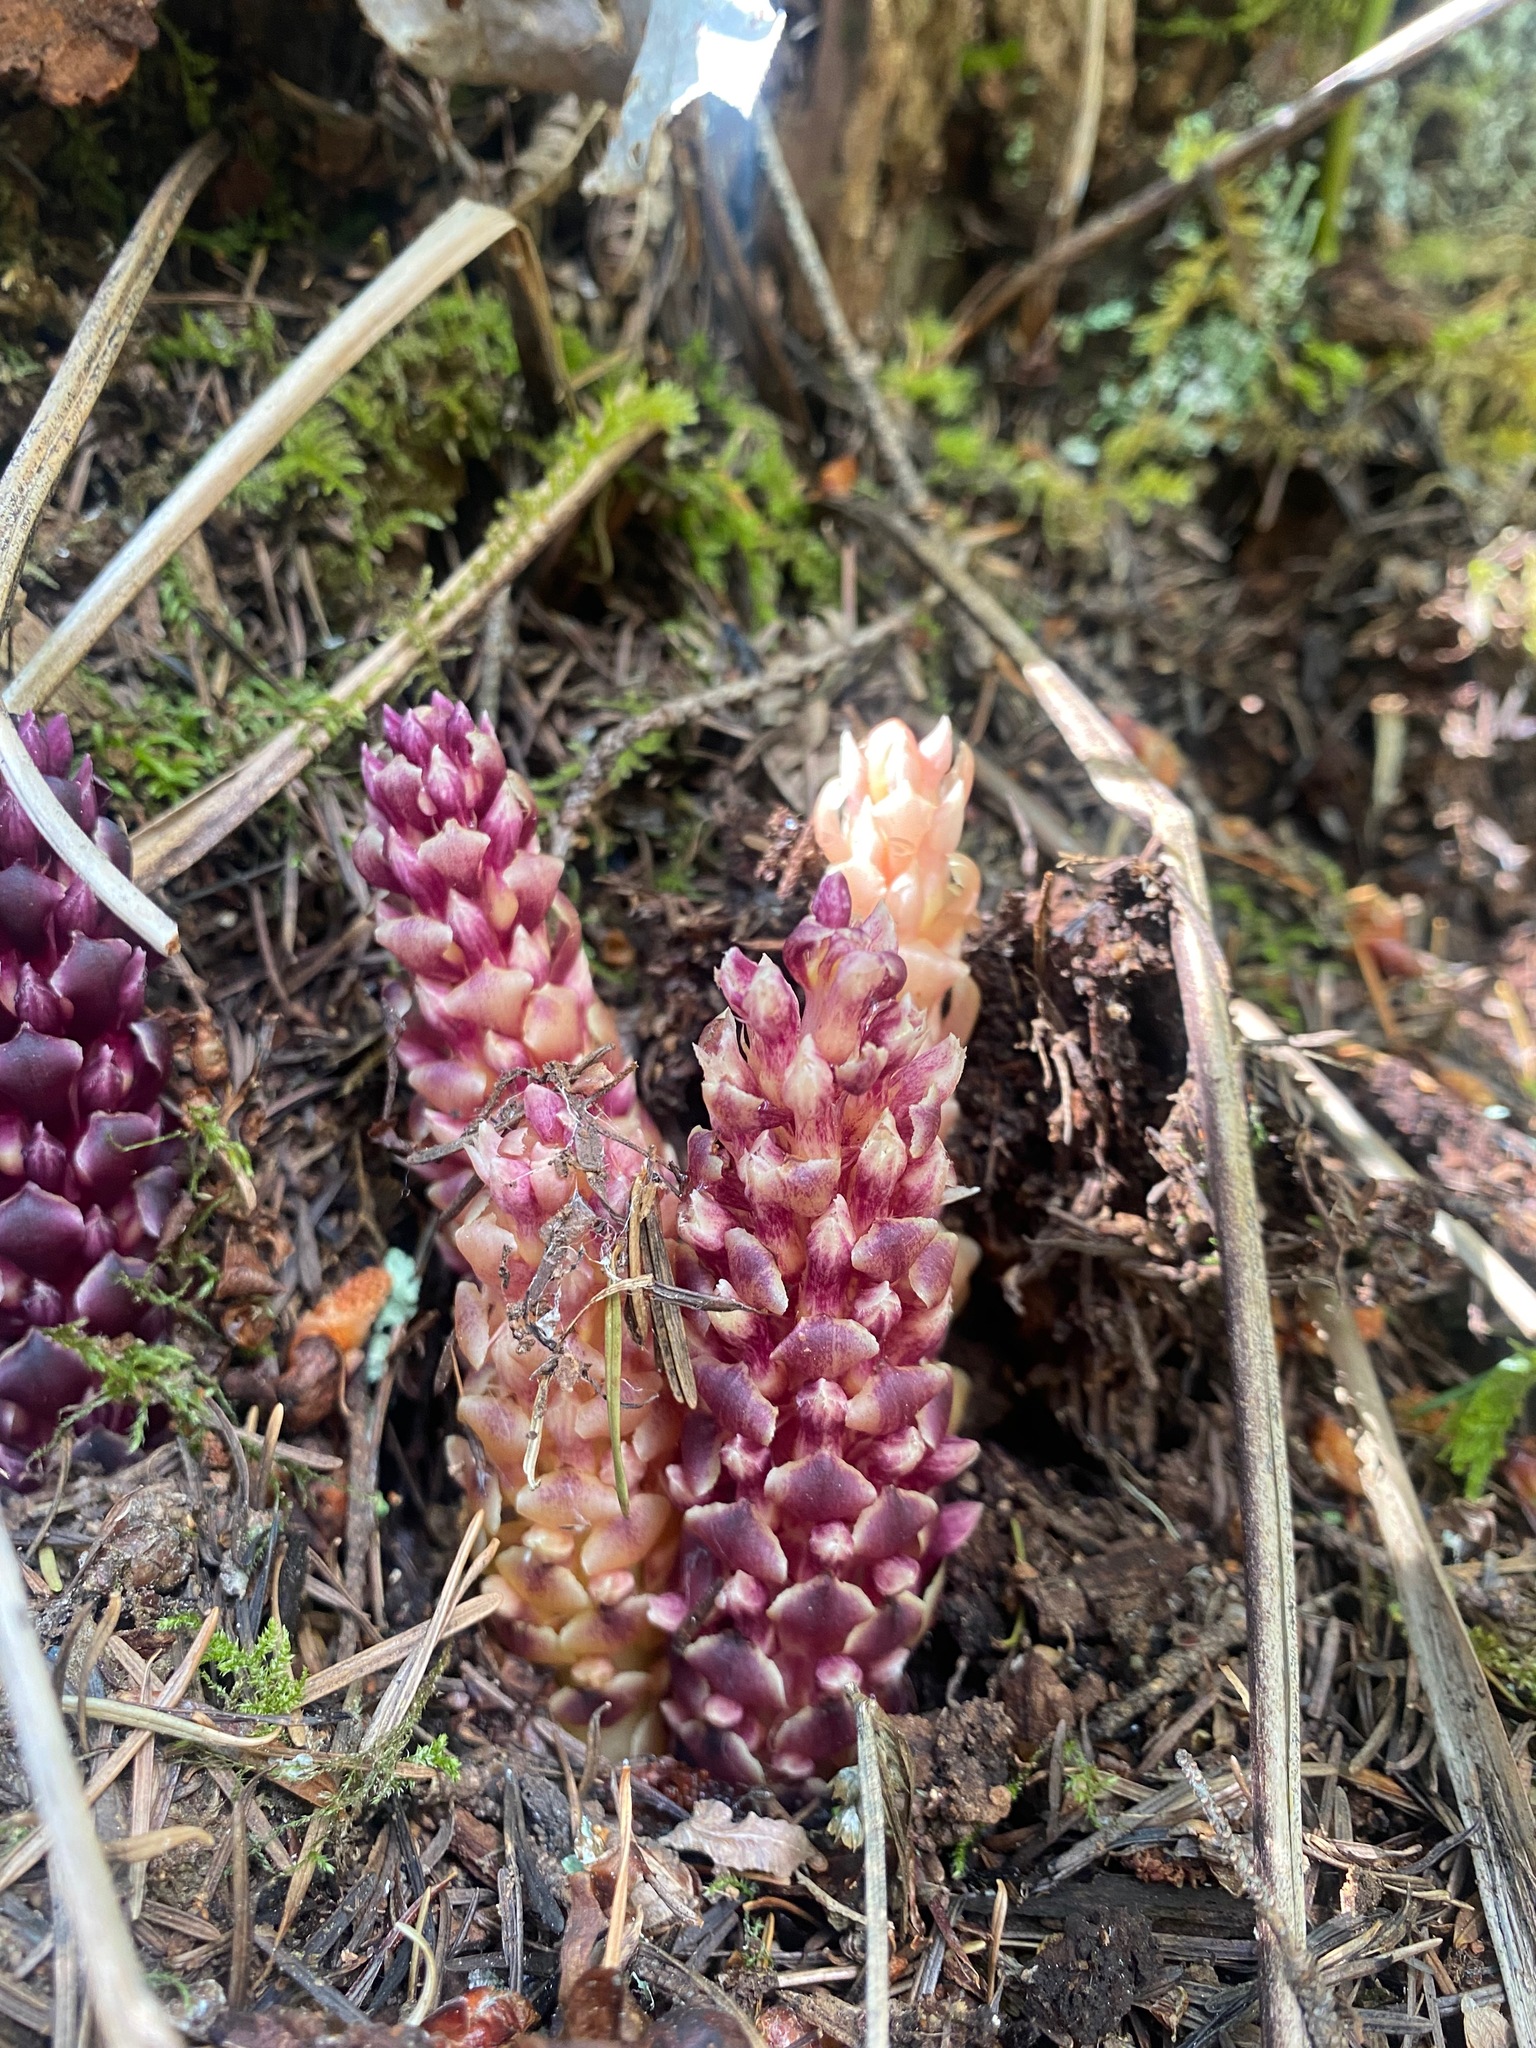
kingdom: Plantae
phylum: Tracheophyta
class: Magnoliopsida
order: Lamiales
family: Orobanchaceae
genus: Kopsiopsis
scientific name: Kopsiopsis hookeri
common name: Hooker's groundcone
